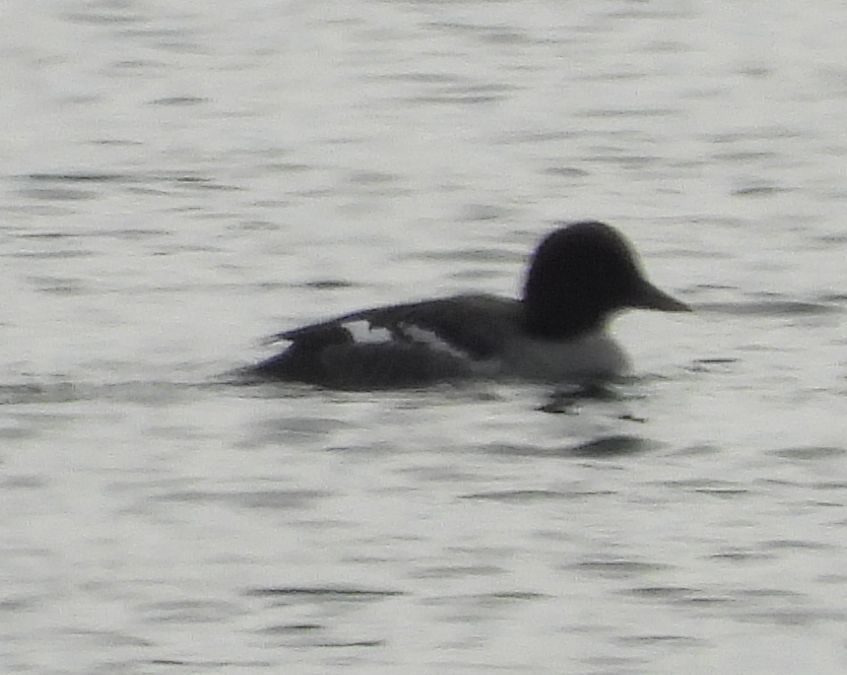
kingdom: Animalia
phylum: Chordata
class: Aves
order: Anseriformes
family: Anatidae
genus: Bucephala
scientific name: Bucephala clangula
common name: Common goldeneye
